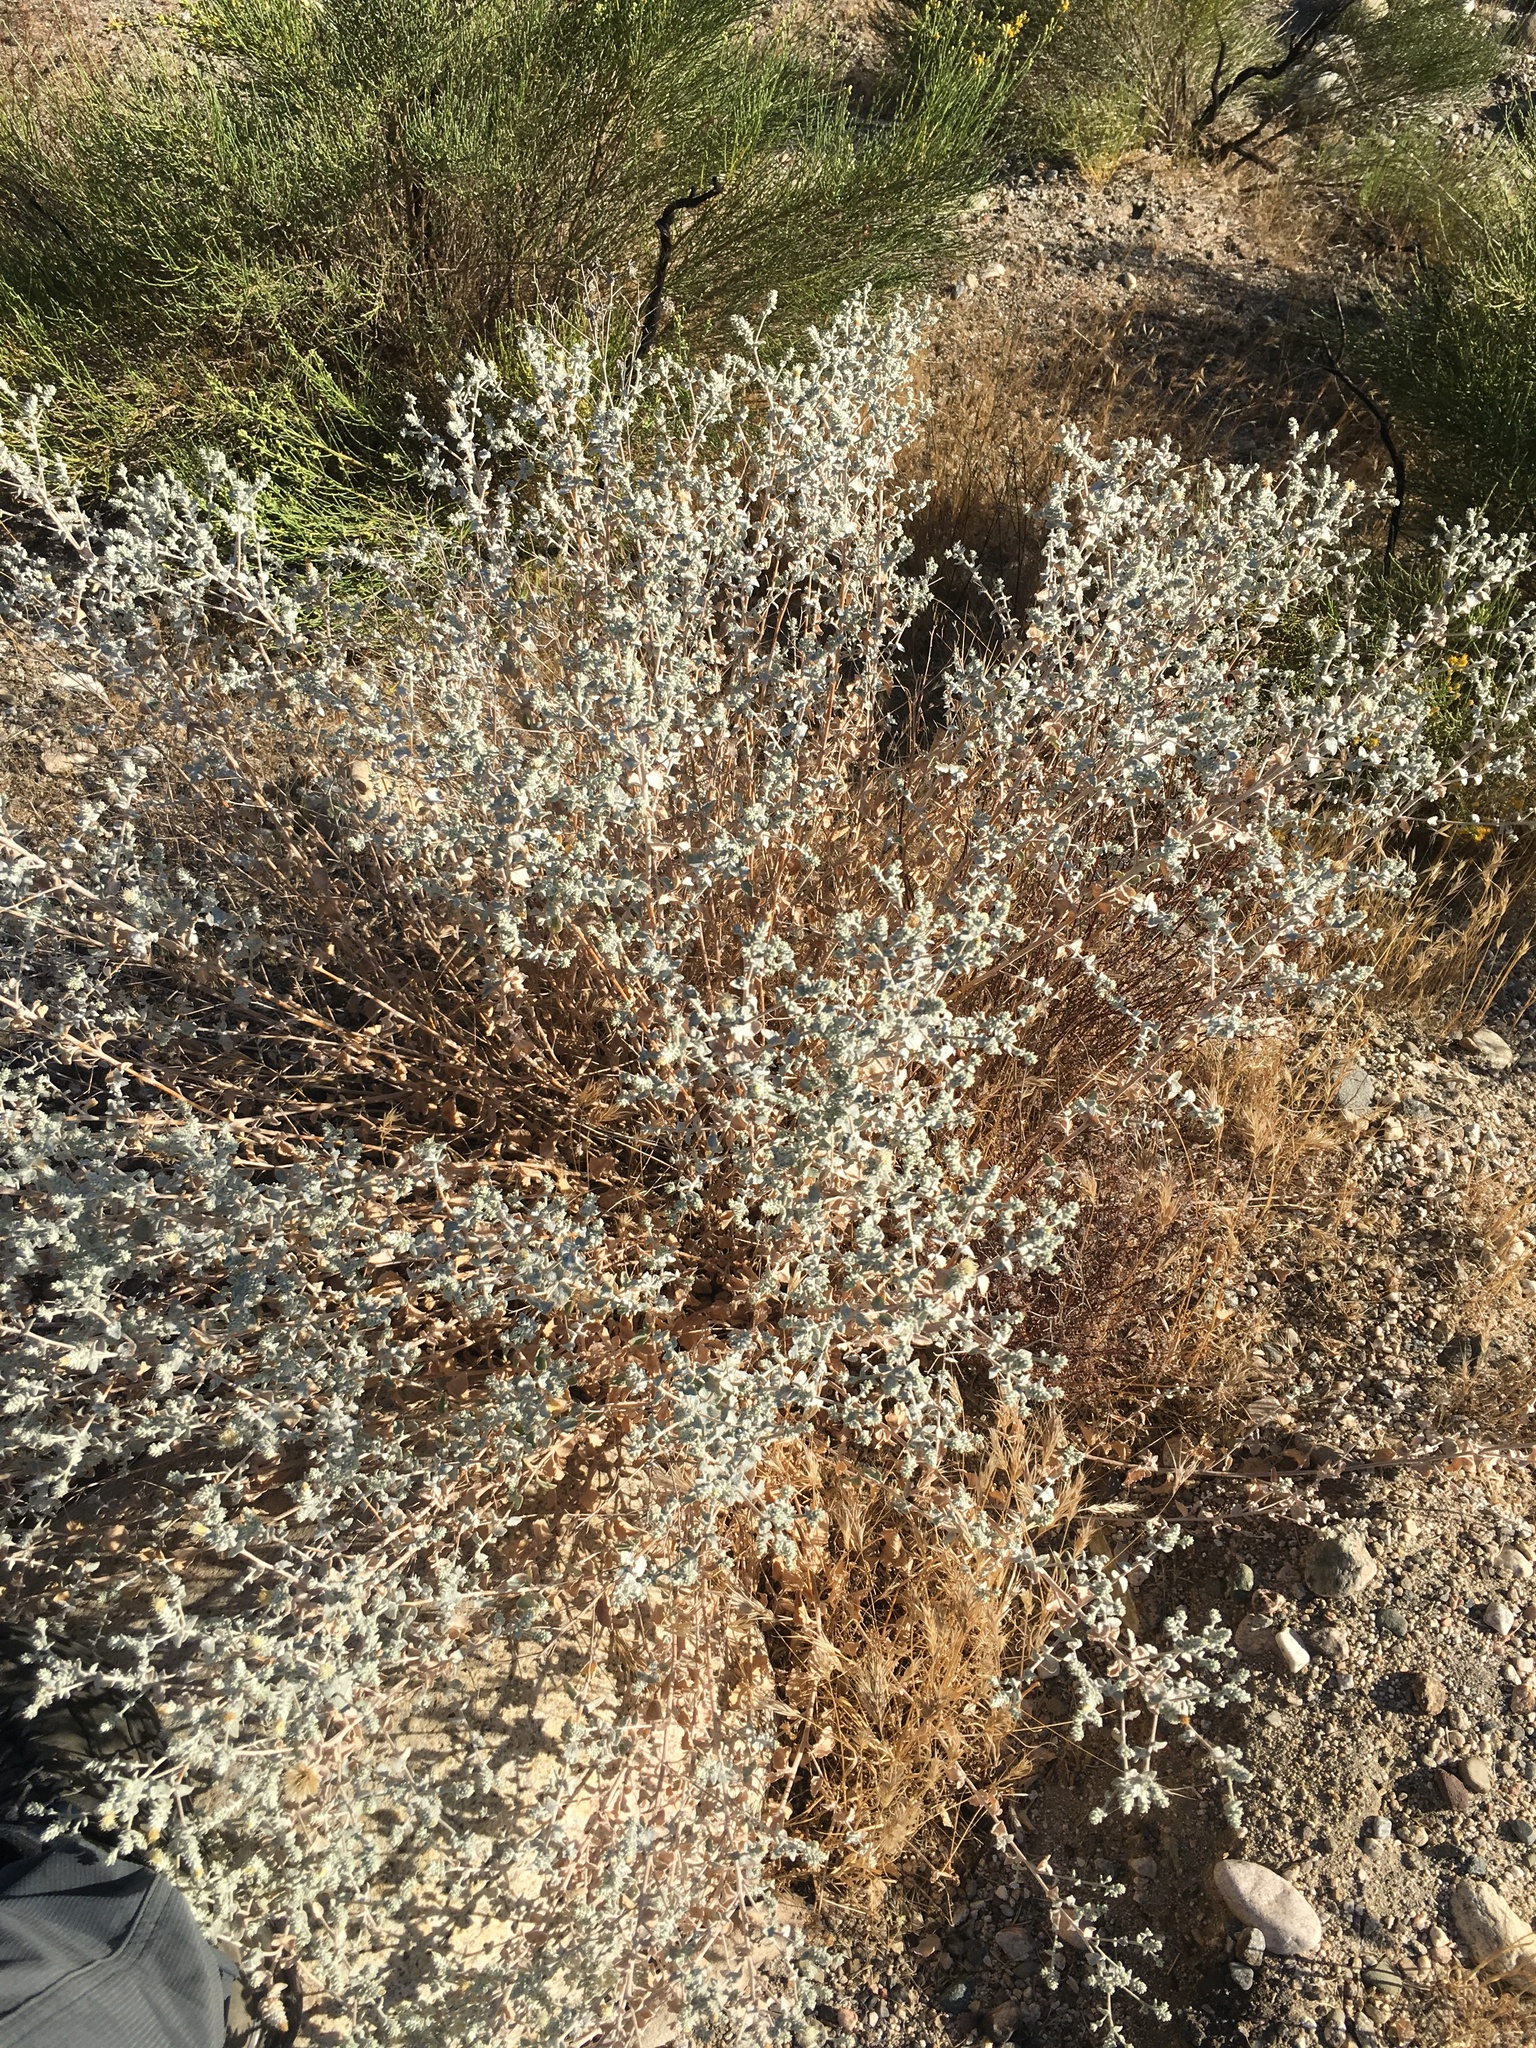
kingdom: Plantae
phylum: Tracheophyta
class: Magnoliopsida
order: Asterales
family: Asteraceae
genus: Brickellia
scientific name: Brickellia nevinii
